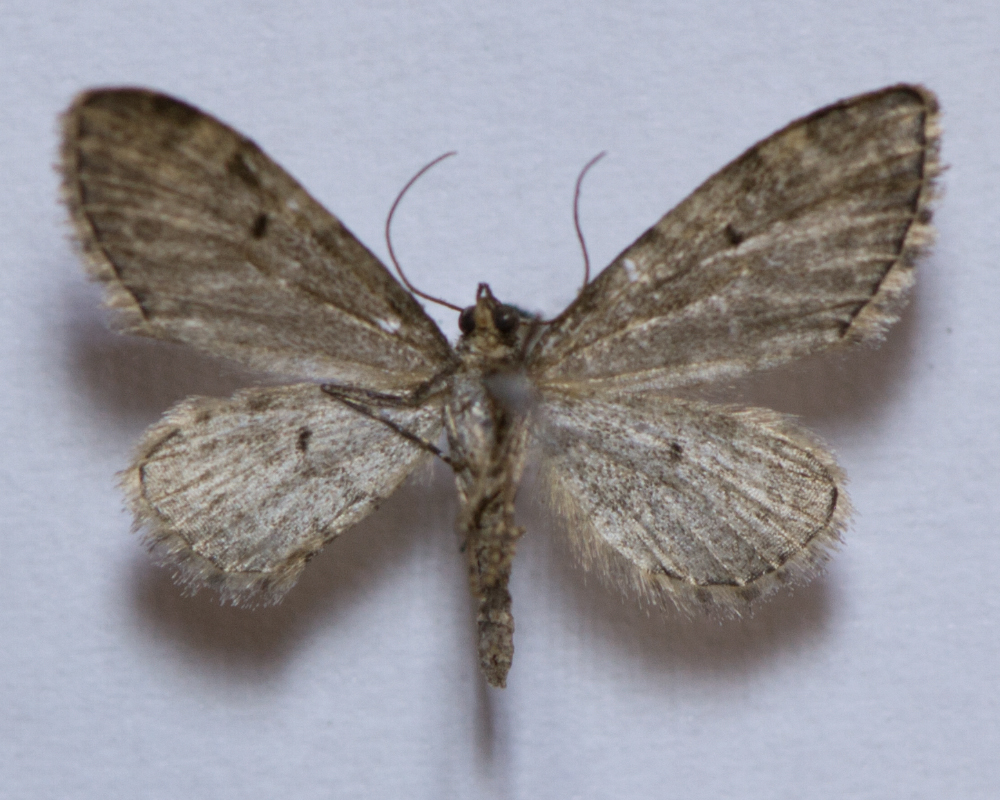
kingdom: Animalia
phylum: Arthropoda
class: Insecta
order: Lepidoptera
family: Geometridae
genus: Eupithecia
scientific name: Eupithecia vulgata
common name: Common pug
